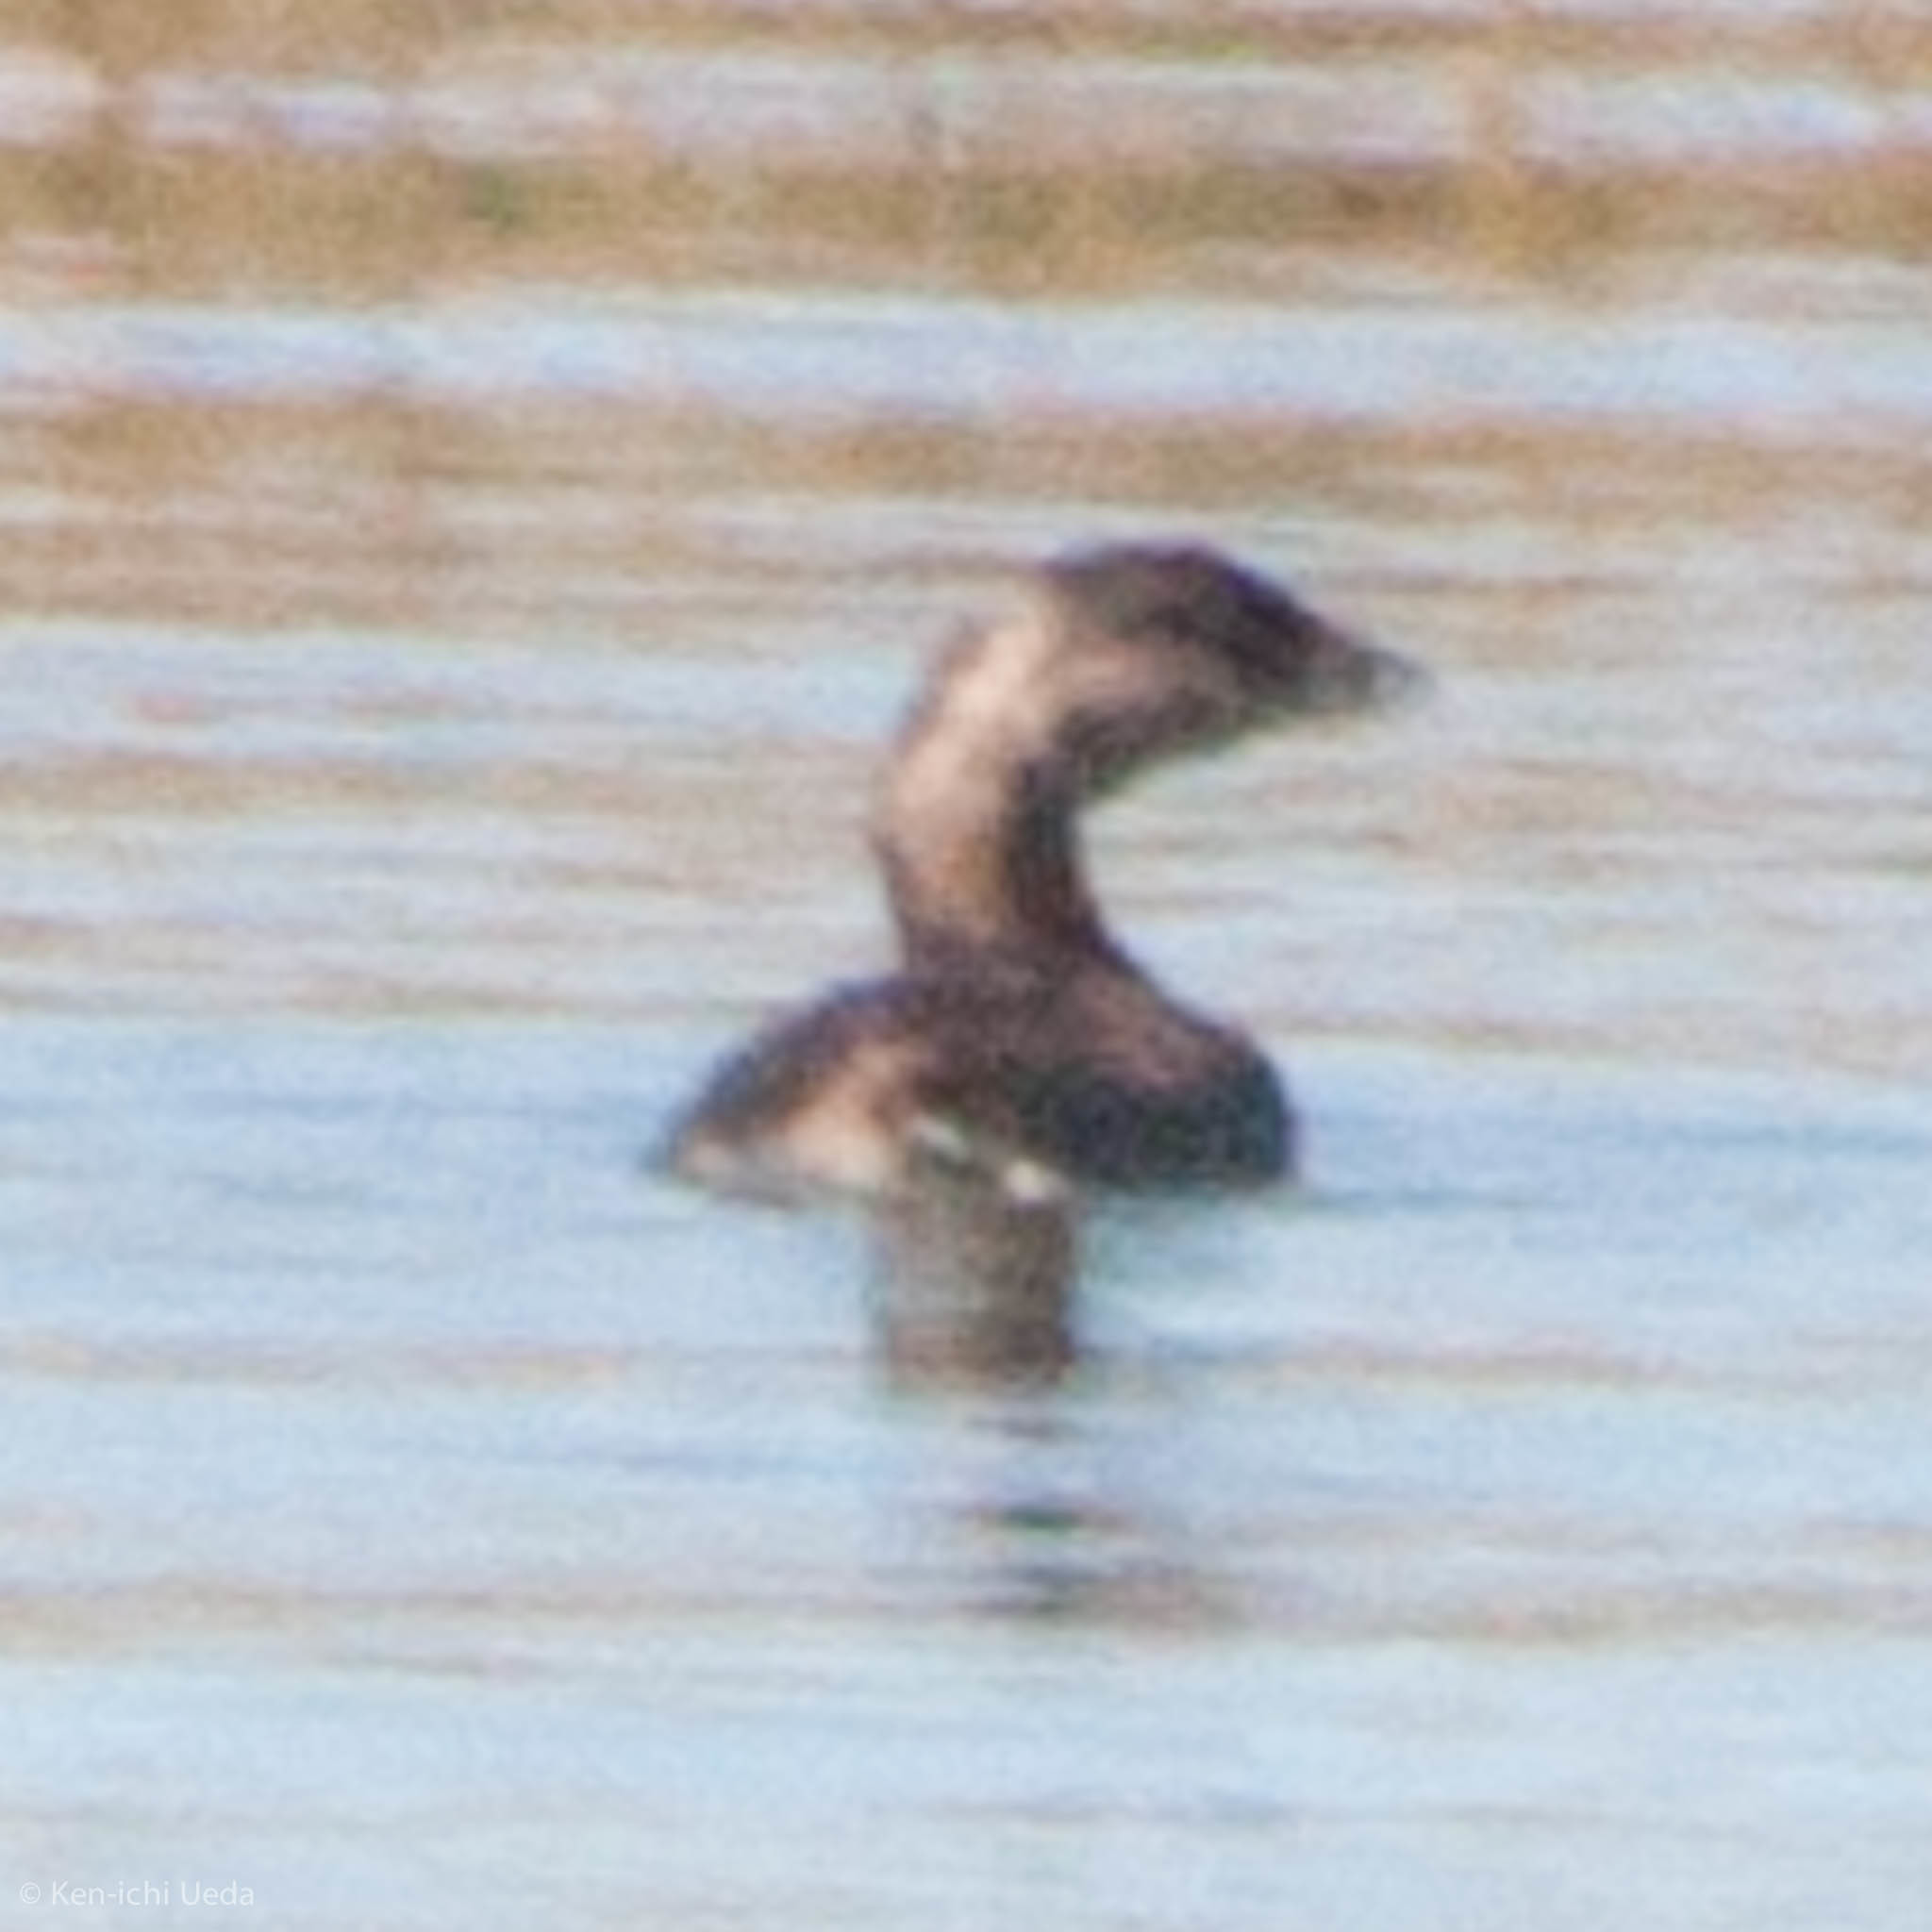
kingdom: Animalia
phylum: Chordata
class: Aves
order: Podicipediformes
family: Podicipedidae
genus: Podilymbus
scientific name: Podilymbus podiceps
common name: Pied-billed grebe
